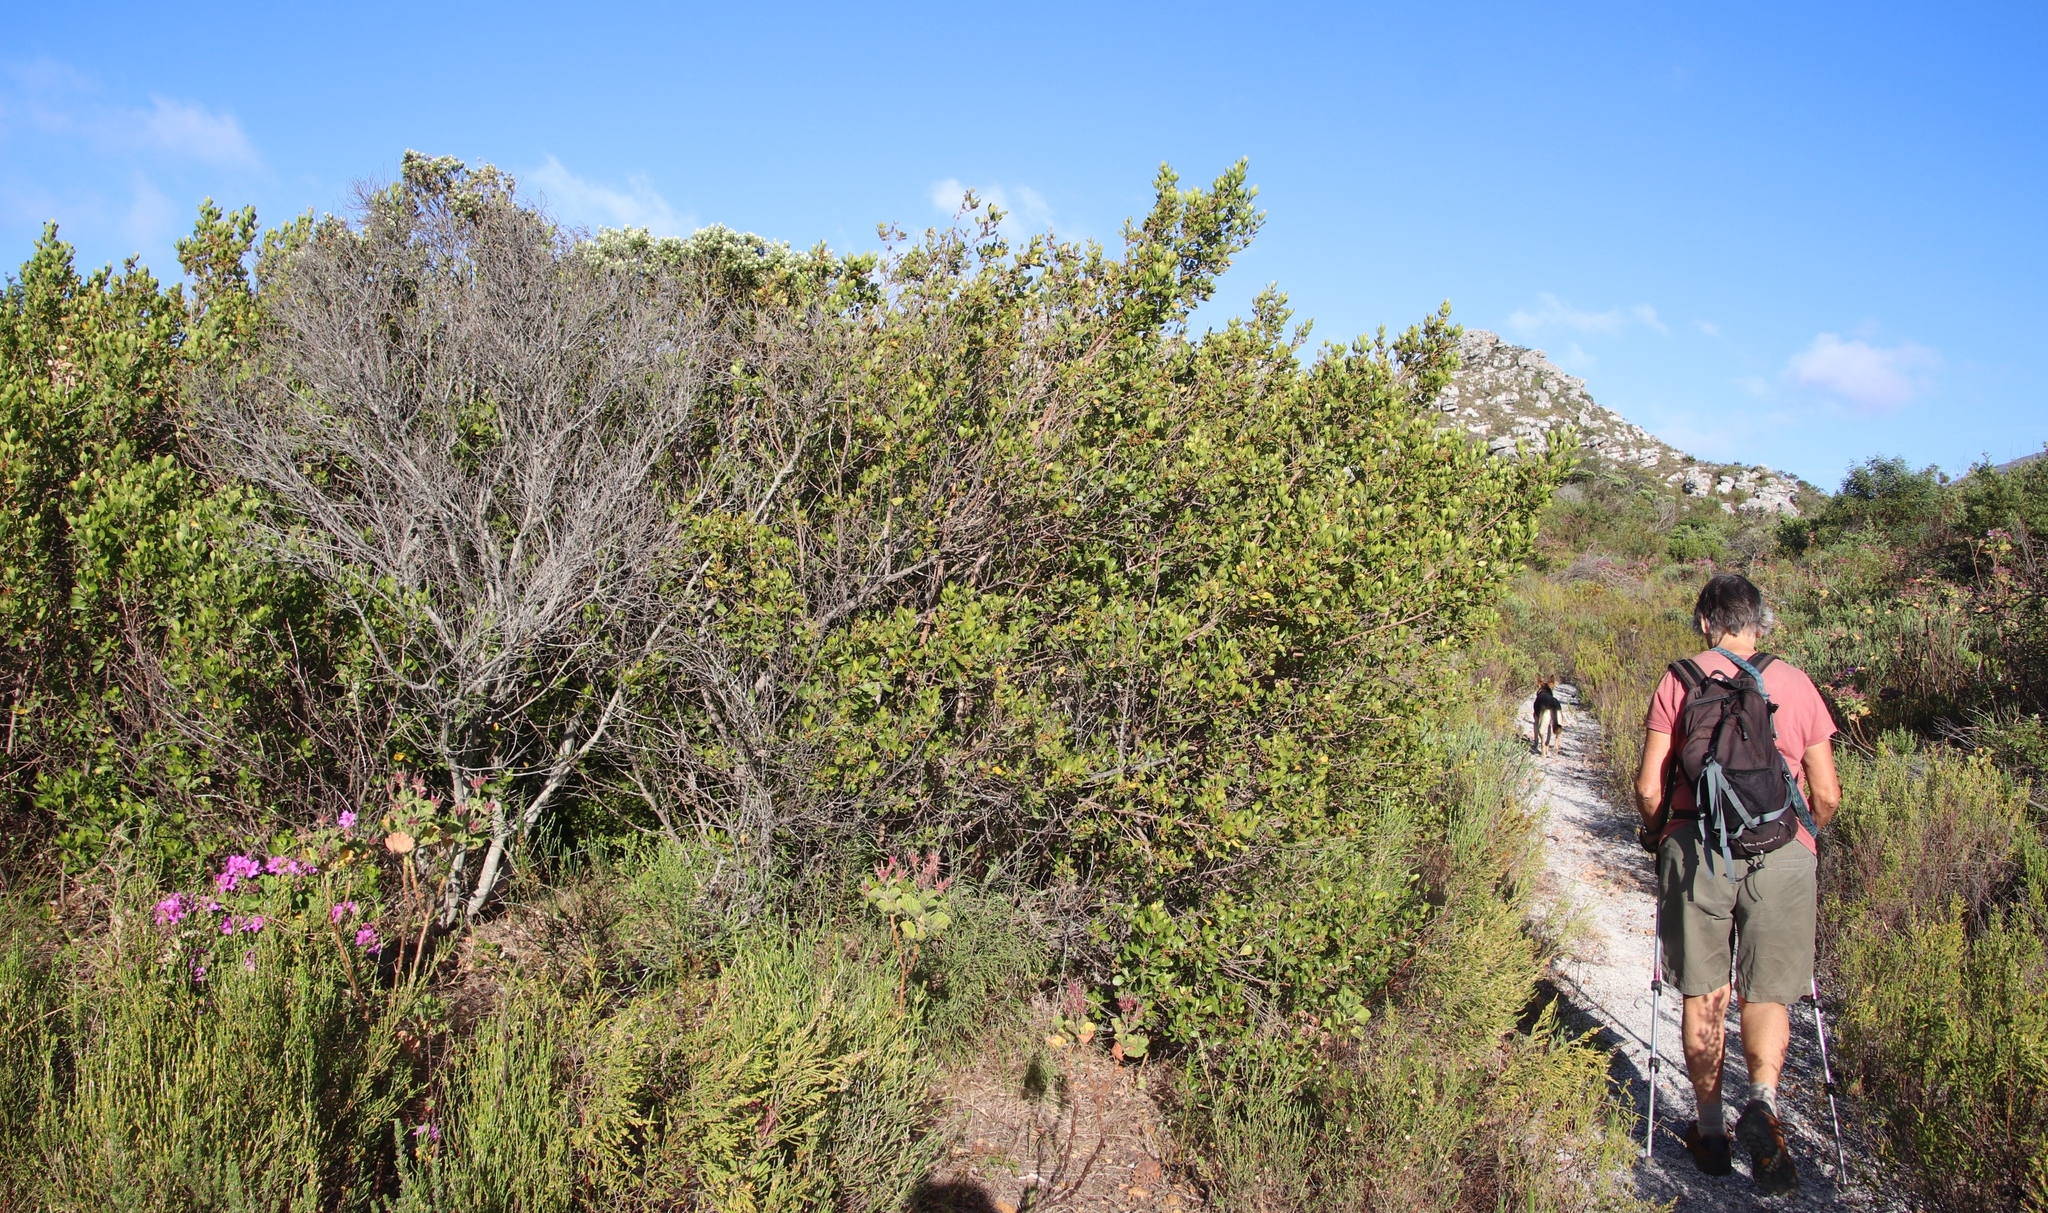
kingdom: Plantae
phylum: Tracheophyta
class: Magnoliopsida
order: Sapindales
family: Anacardiaceae
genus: Searsia
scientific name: Searsia lucida
